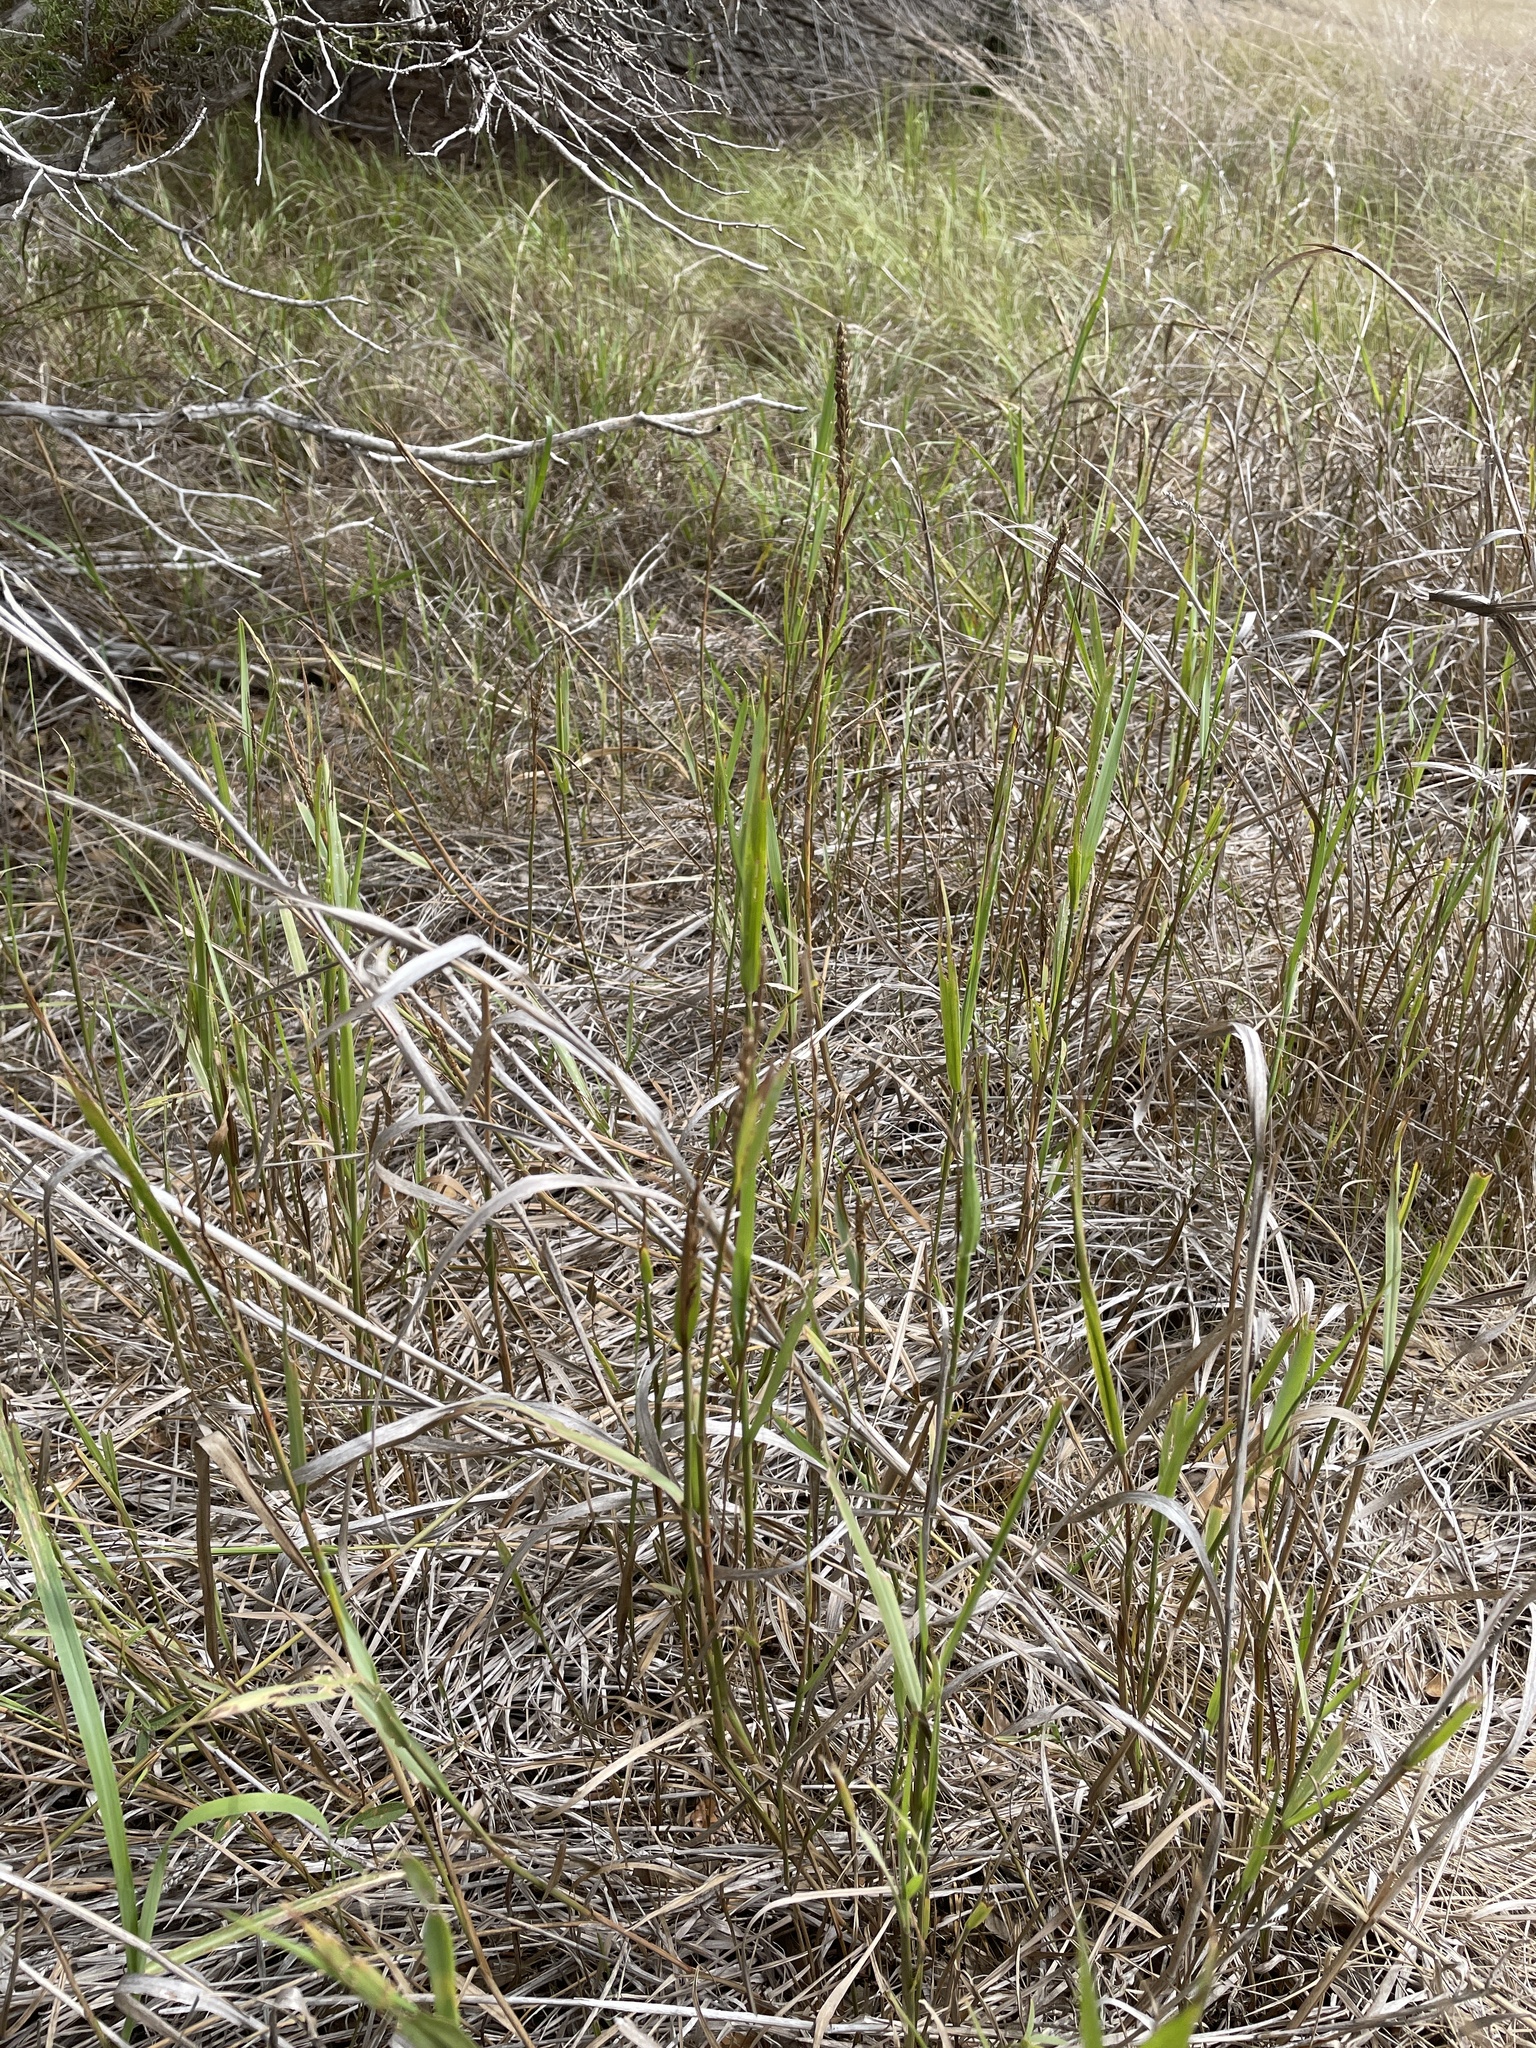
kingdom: Plantae
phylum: Tracheophyta
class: Liliopsida
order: Poales
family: Poaceae
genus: Hopia
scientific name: Hopia obtusa
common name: Vine-mesquite
